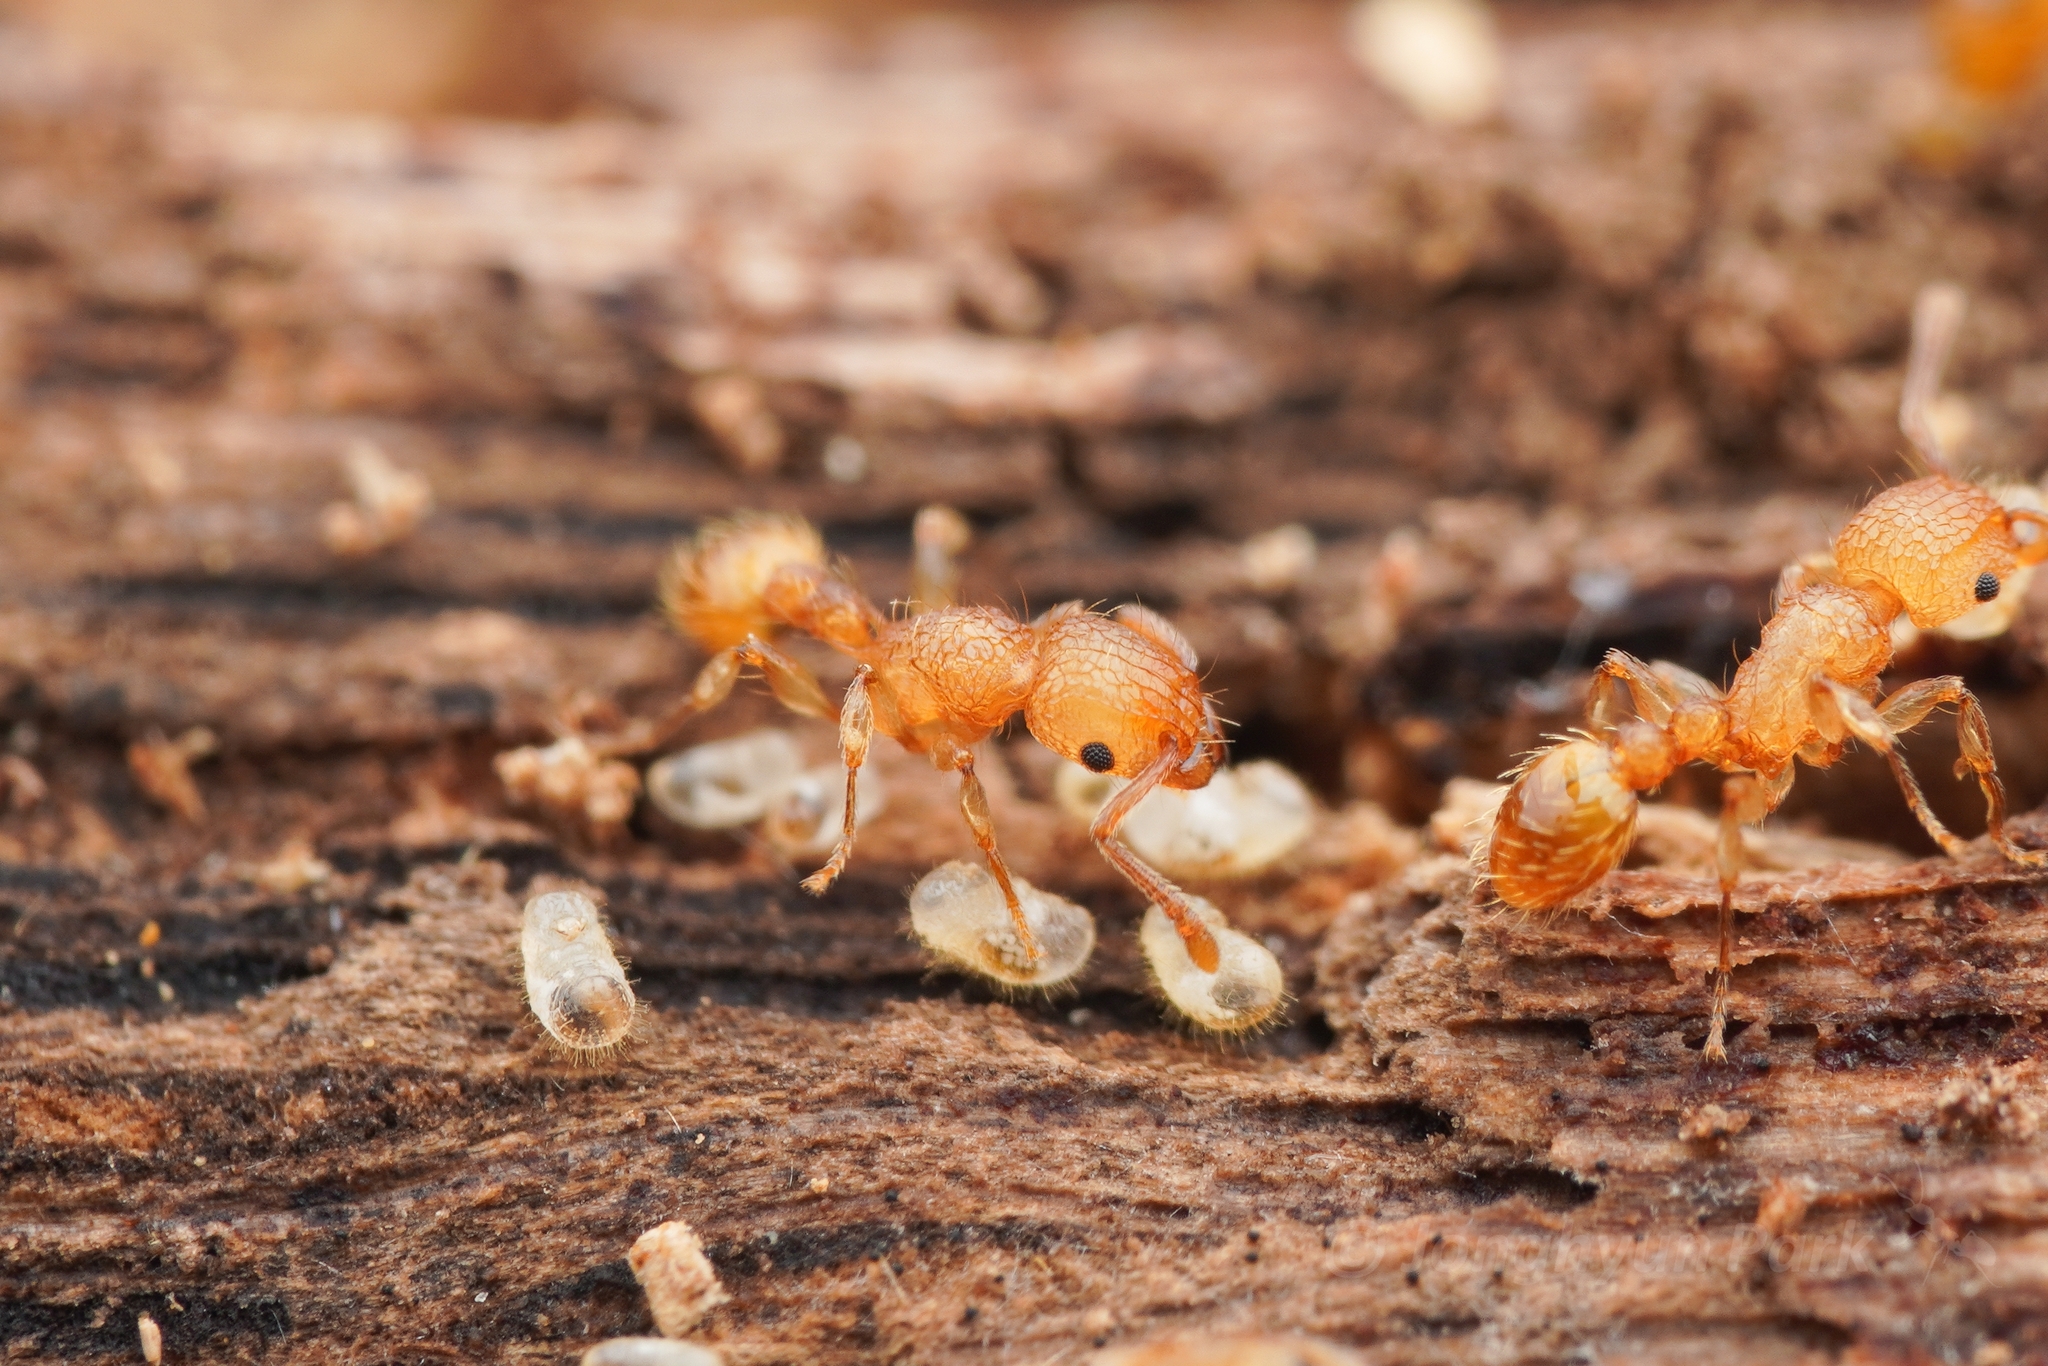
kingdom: Animalia
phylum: Arthropoda
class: Insecta
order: Hymenoptera
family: Formicidae
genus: Tetramorium
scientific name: Tetramorium nipponense
